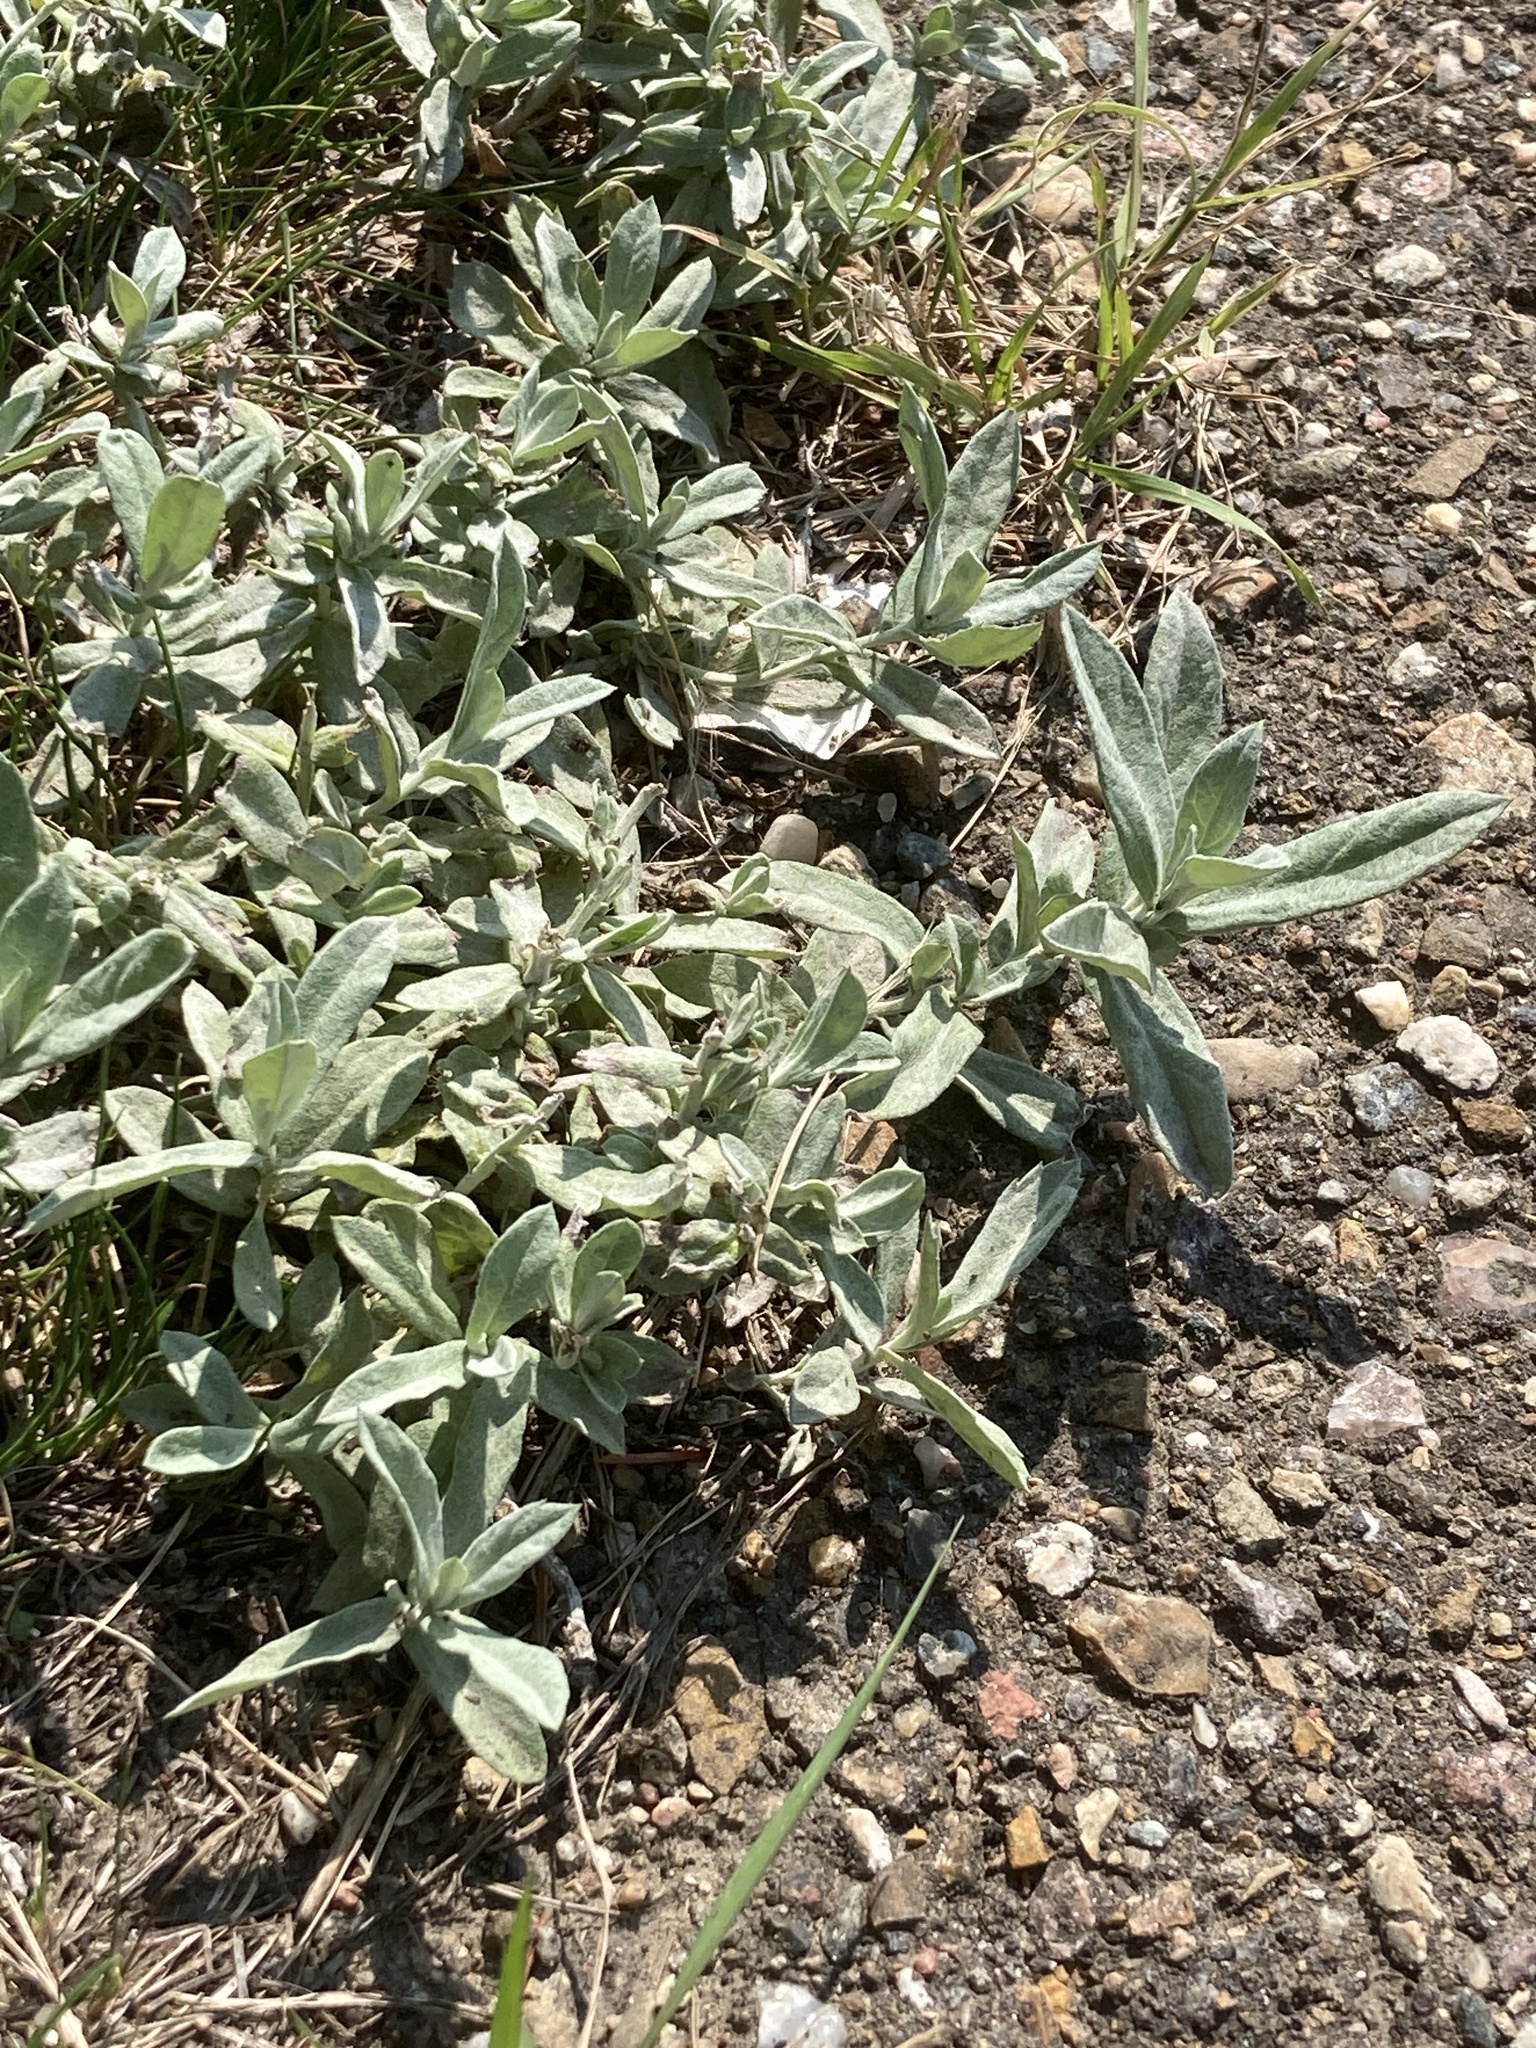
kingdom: Plantae
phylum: Tracheophyta
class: Magnoliopsida
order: Asterales
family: Asteraceae
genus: Artemisia
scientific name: Artemisia ludoviciana
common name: Western mugwort
